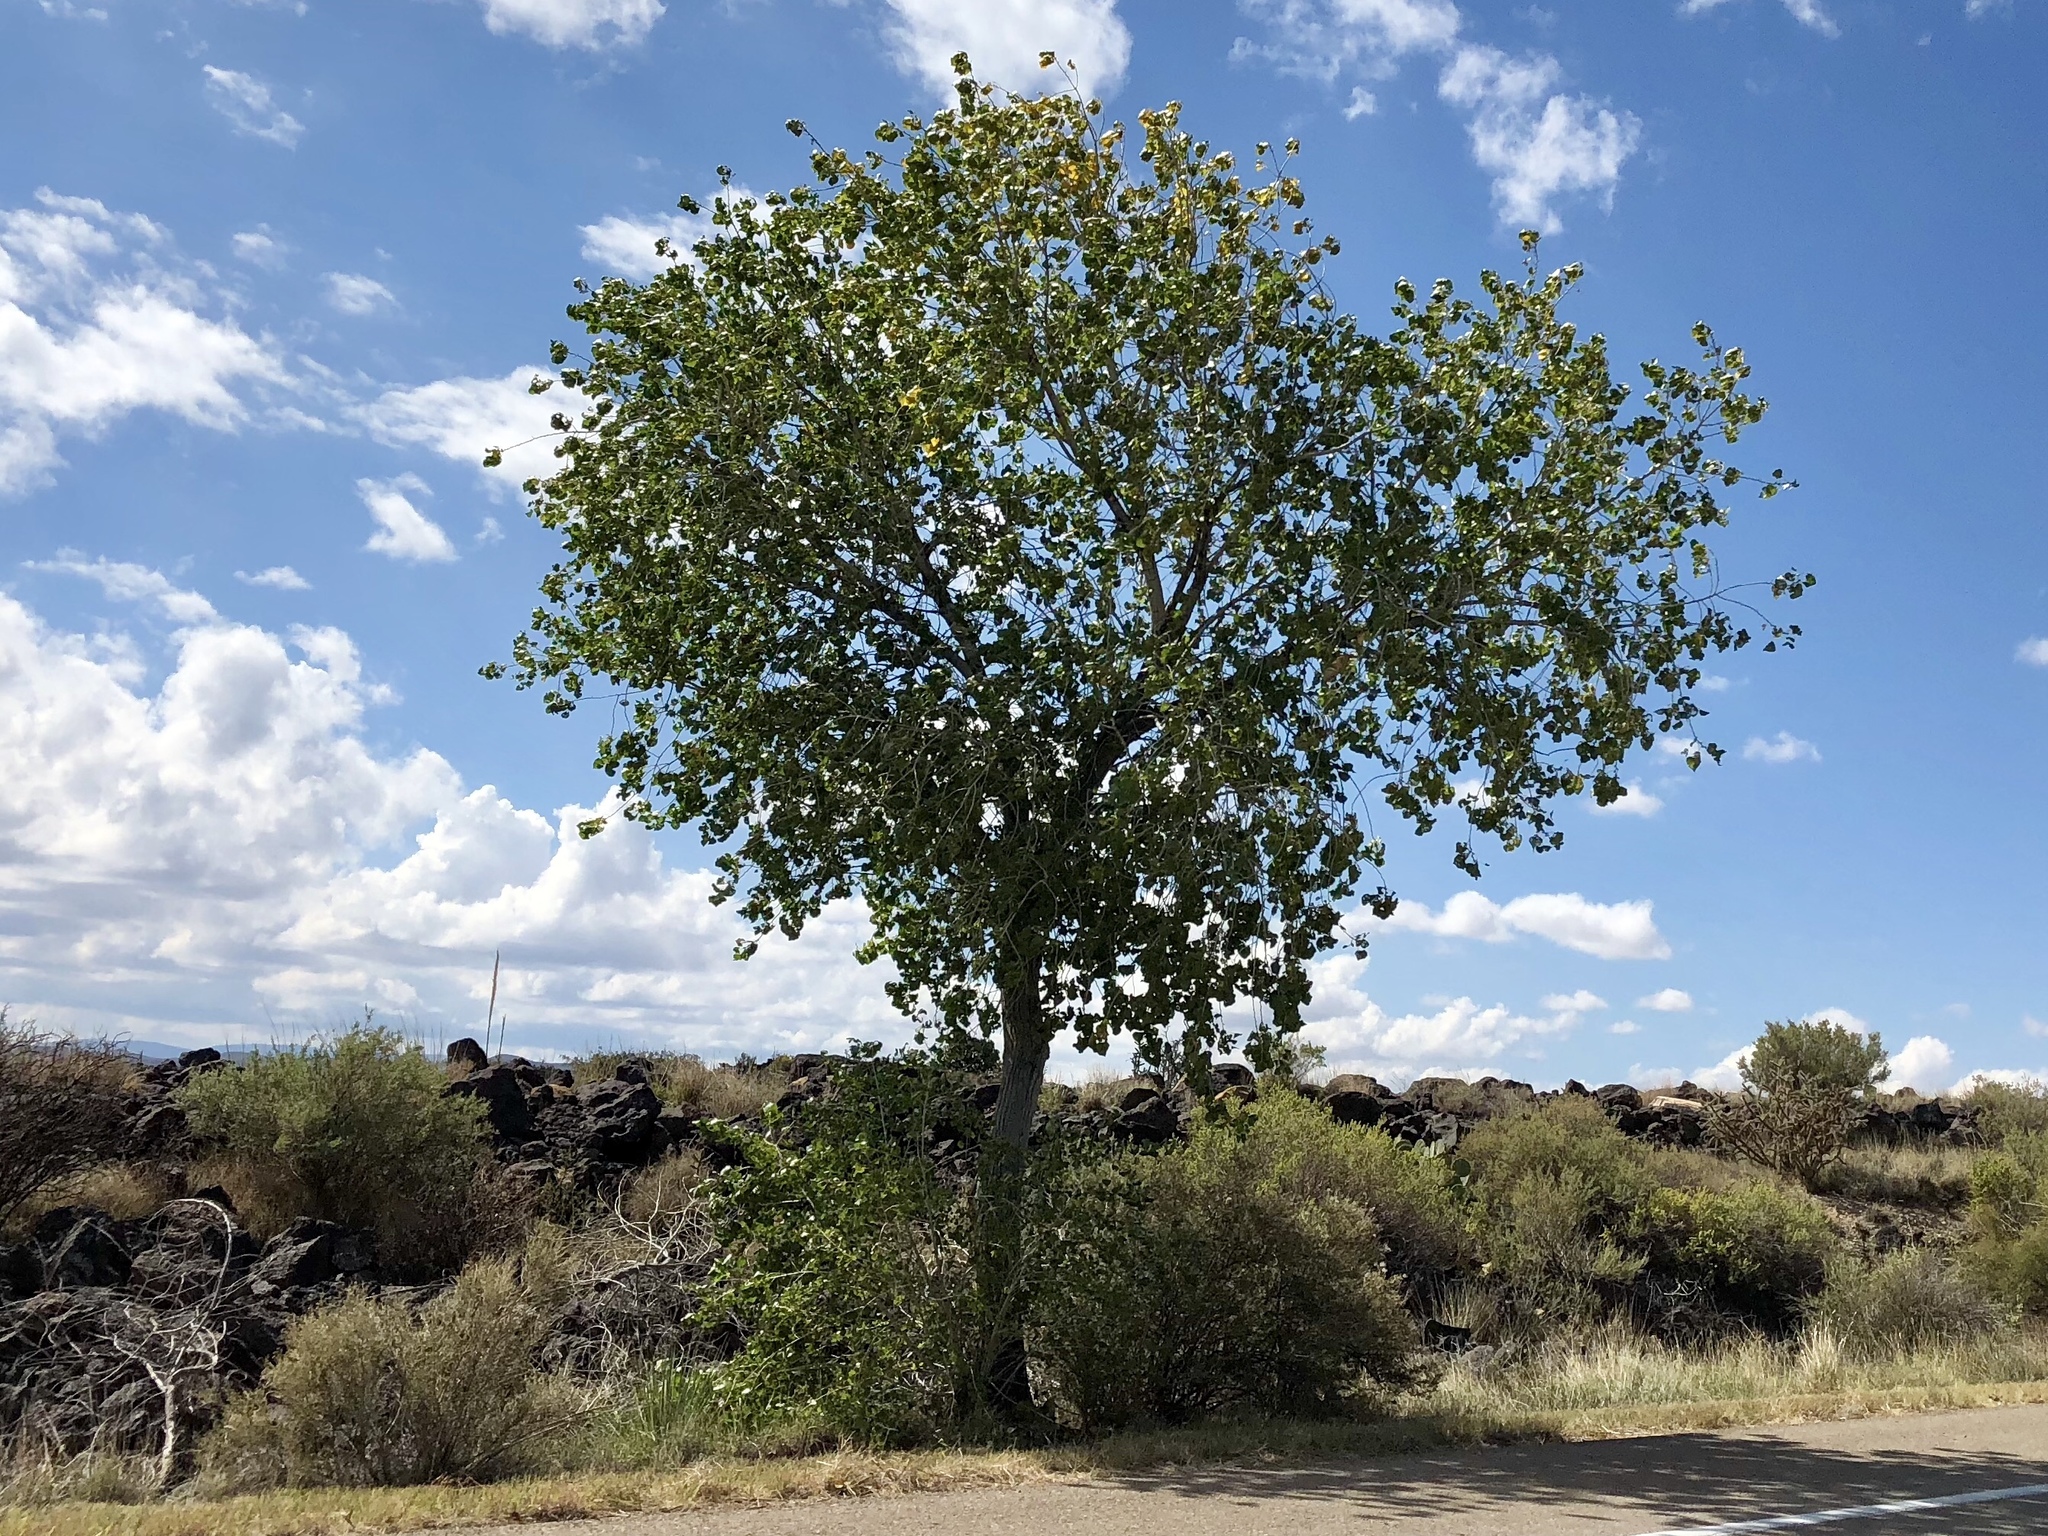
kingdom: Plantae
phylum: Tracheophyta
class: Magnoliopsida
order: Malpighiales
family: Salicaceae
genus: Populus
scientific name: Populus fremontii
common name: Fremont's cottonwood
